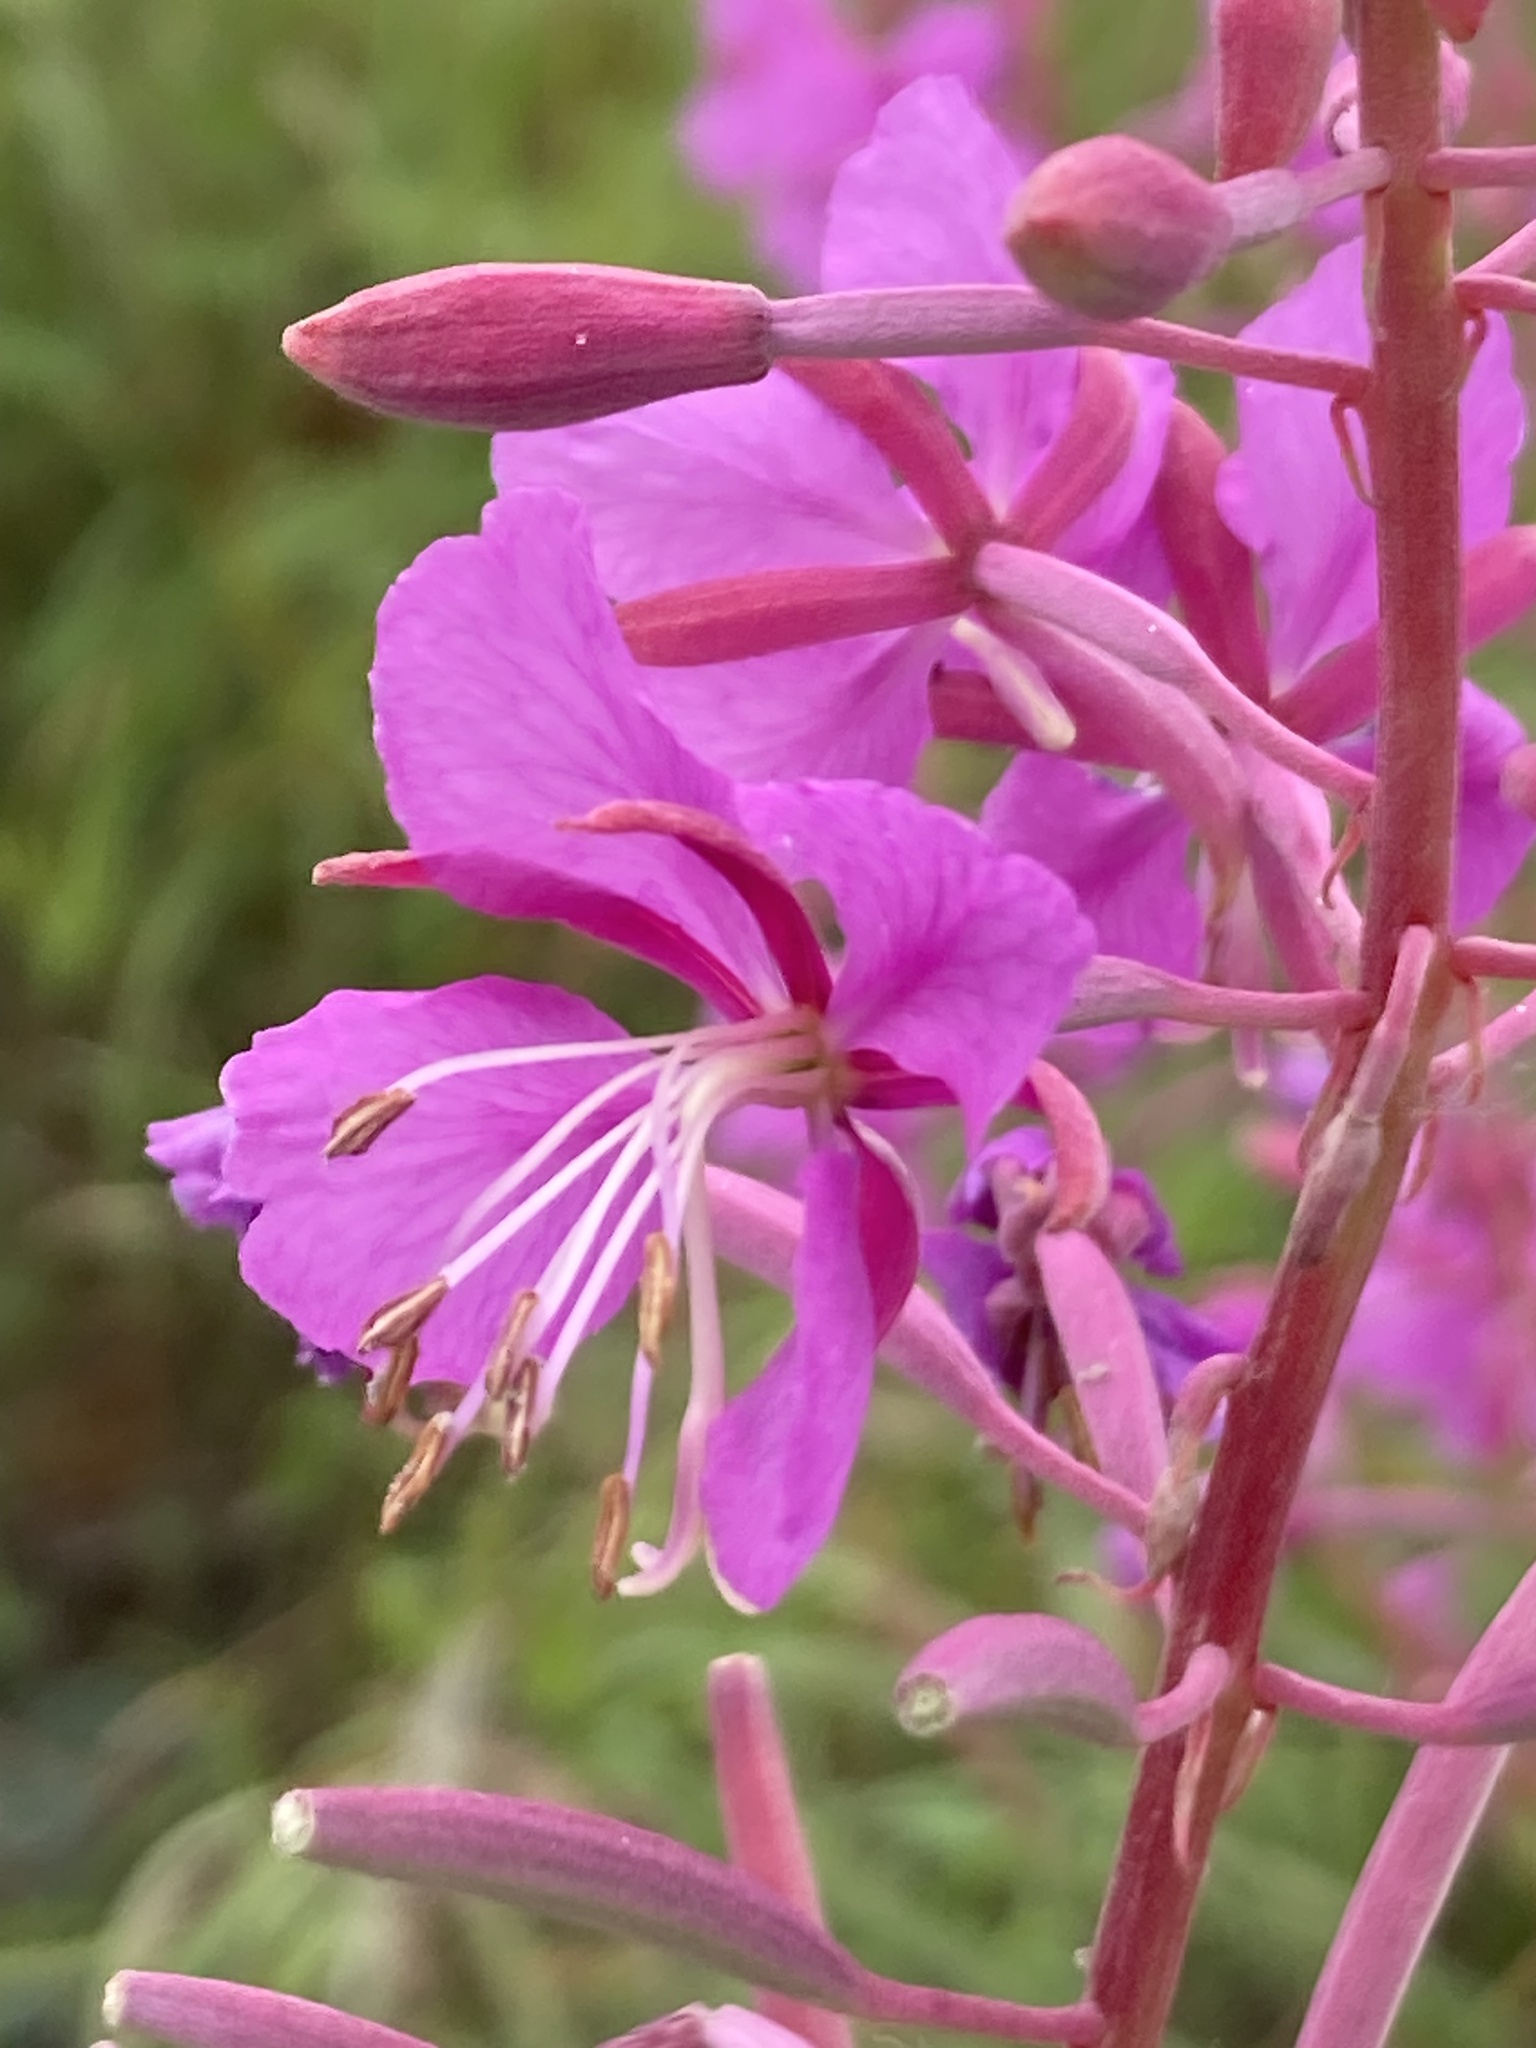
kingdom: Plantae
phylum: Tracheophyta
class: Magnoliopsida
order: Myrtales
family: Onagraceae
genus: Chamaenerion
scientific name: Chamaenerion angustifolium
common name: Fireweed
